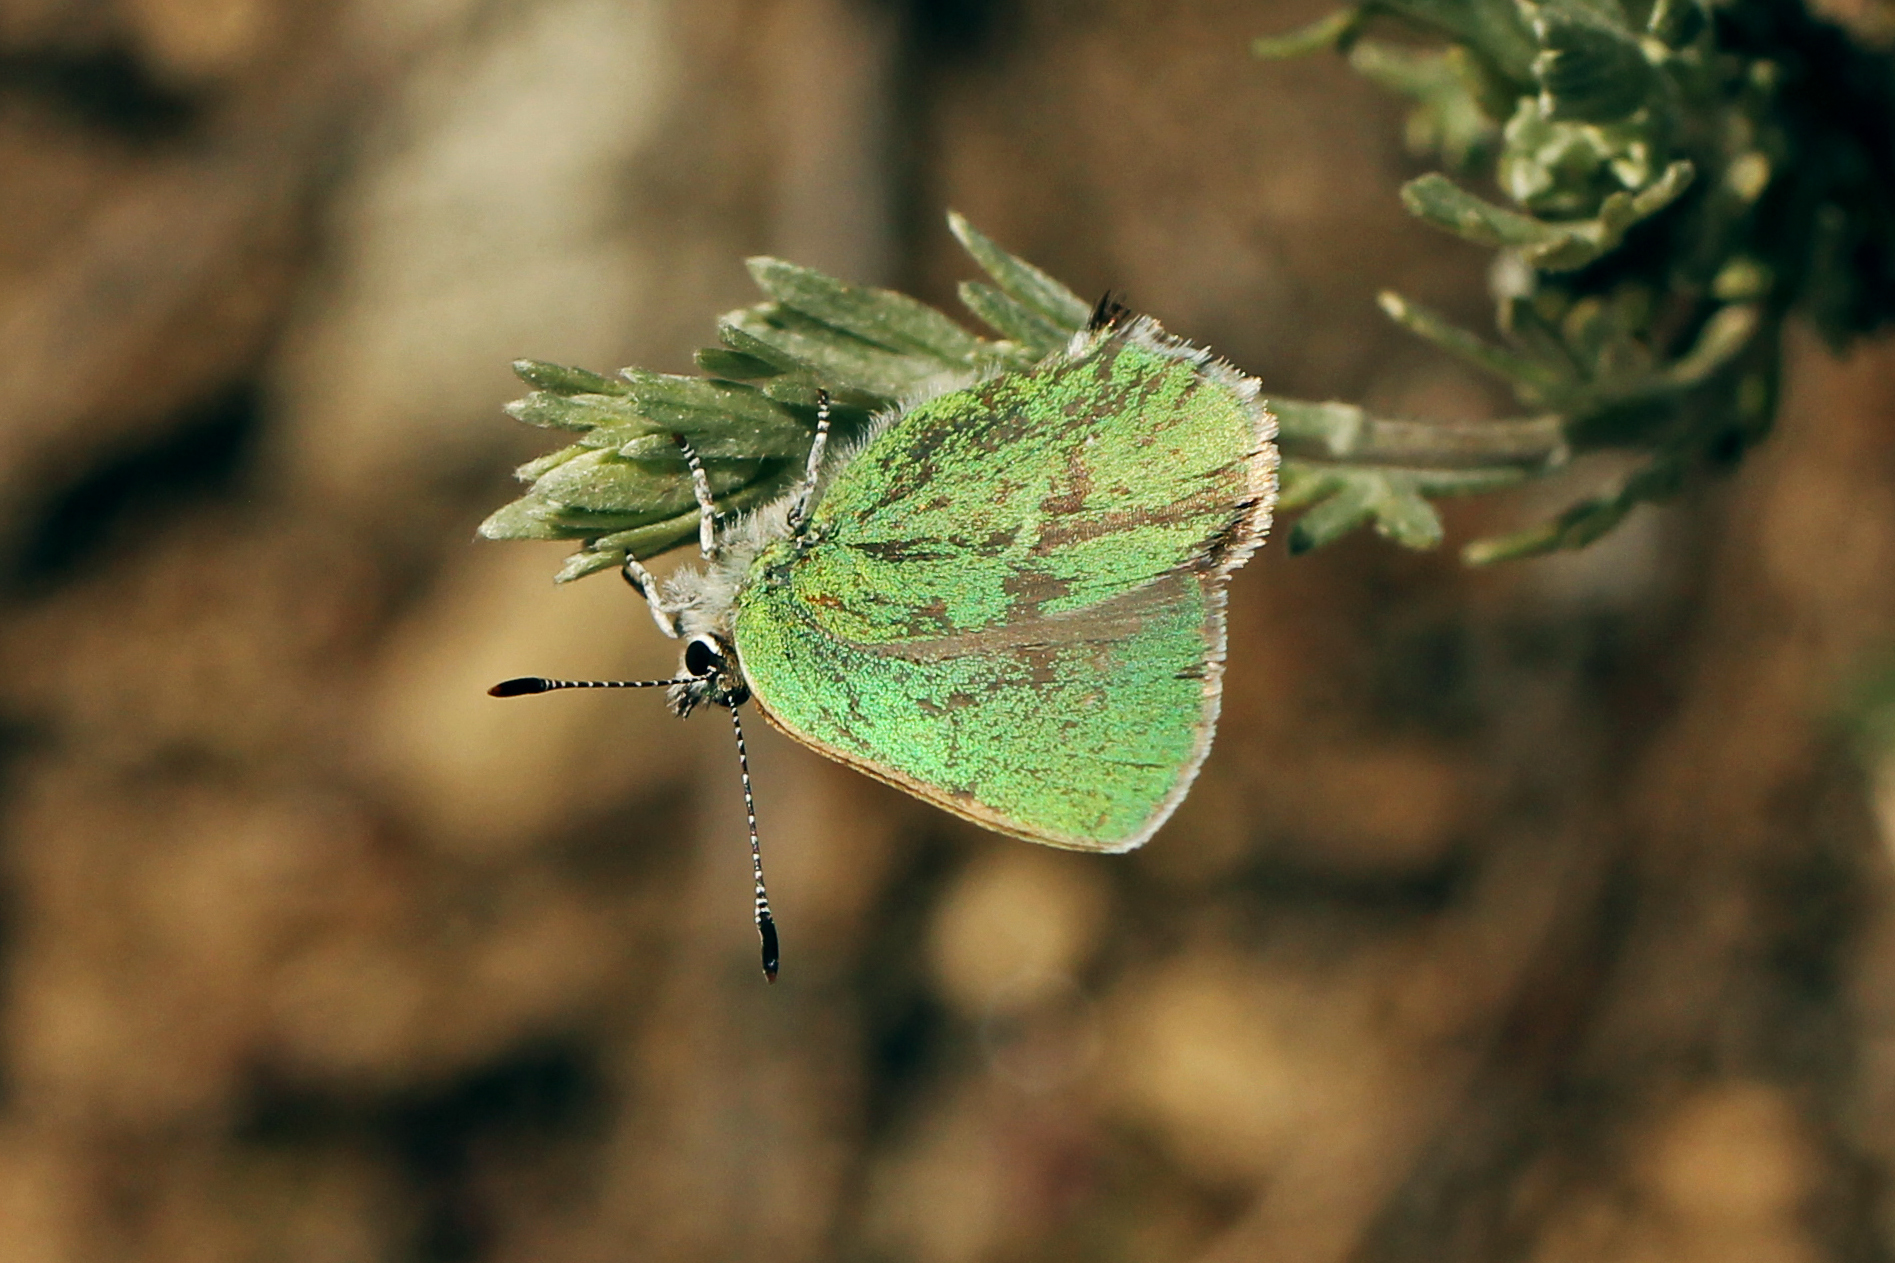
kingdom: Animalia
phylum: Arthropoda
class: Insecta
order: Lepidoptera
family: Lycaenidae
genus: Callophrys
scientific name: Callophrys affinis
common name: Western green hairstreak
